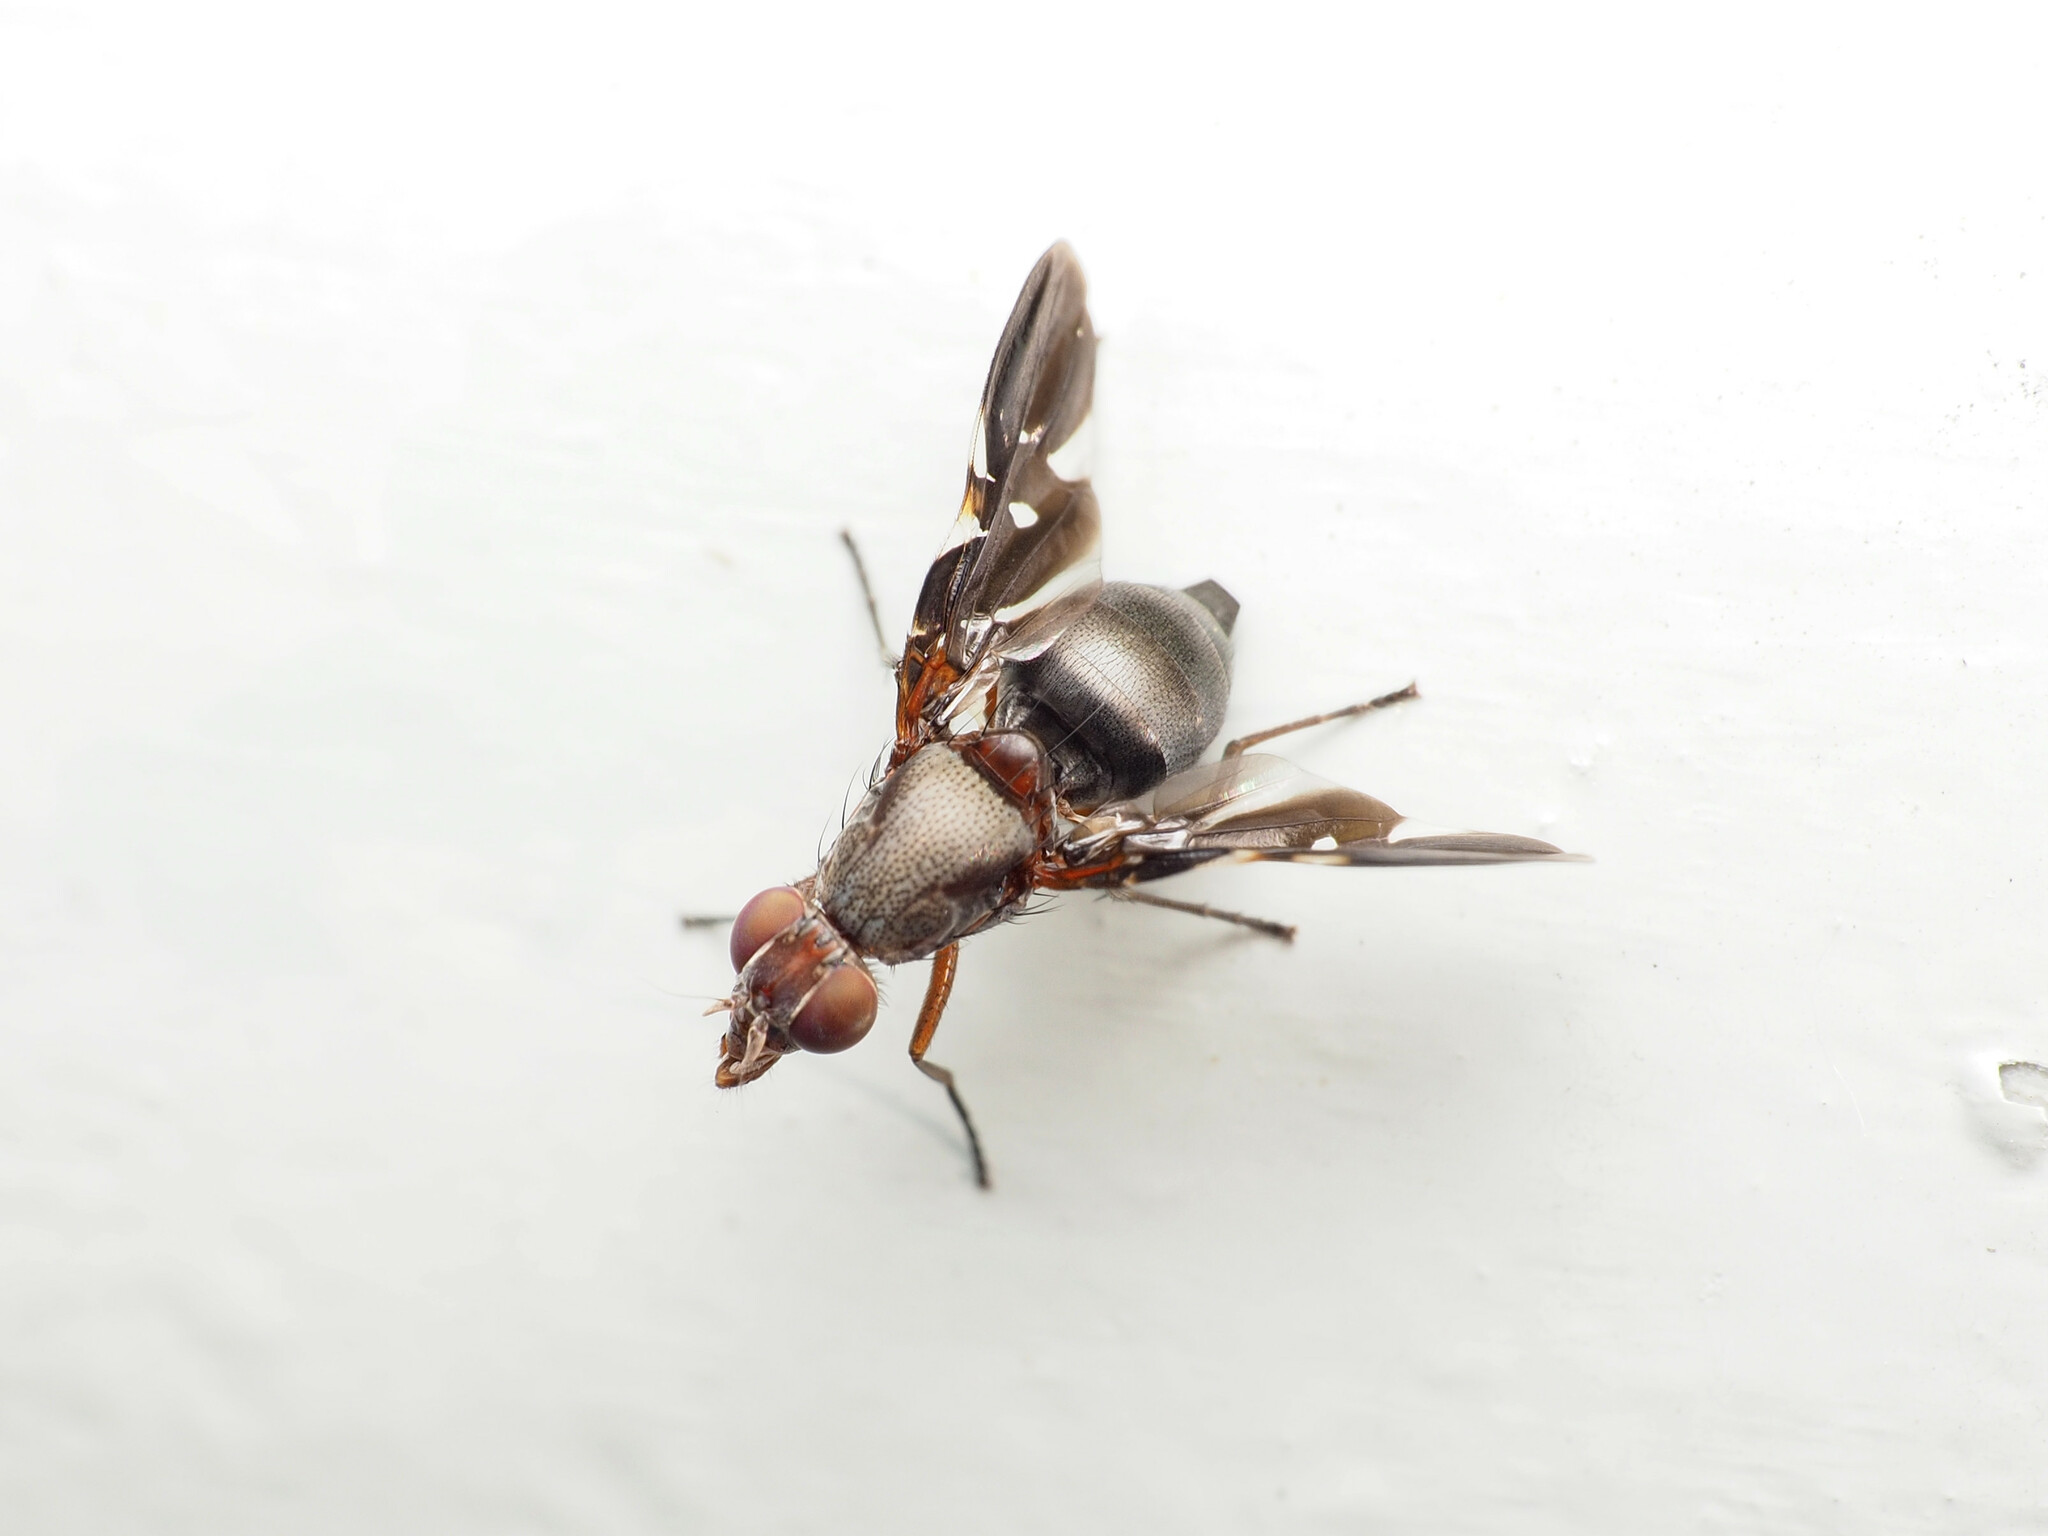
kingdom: Animalia
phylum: Arthropoda
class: Insecta
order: Diptera
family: Ulidiidae
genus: Delphinia
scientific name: Delphinia picta
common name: Common picture-winged fly
